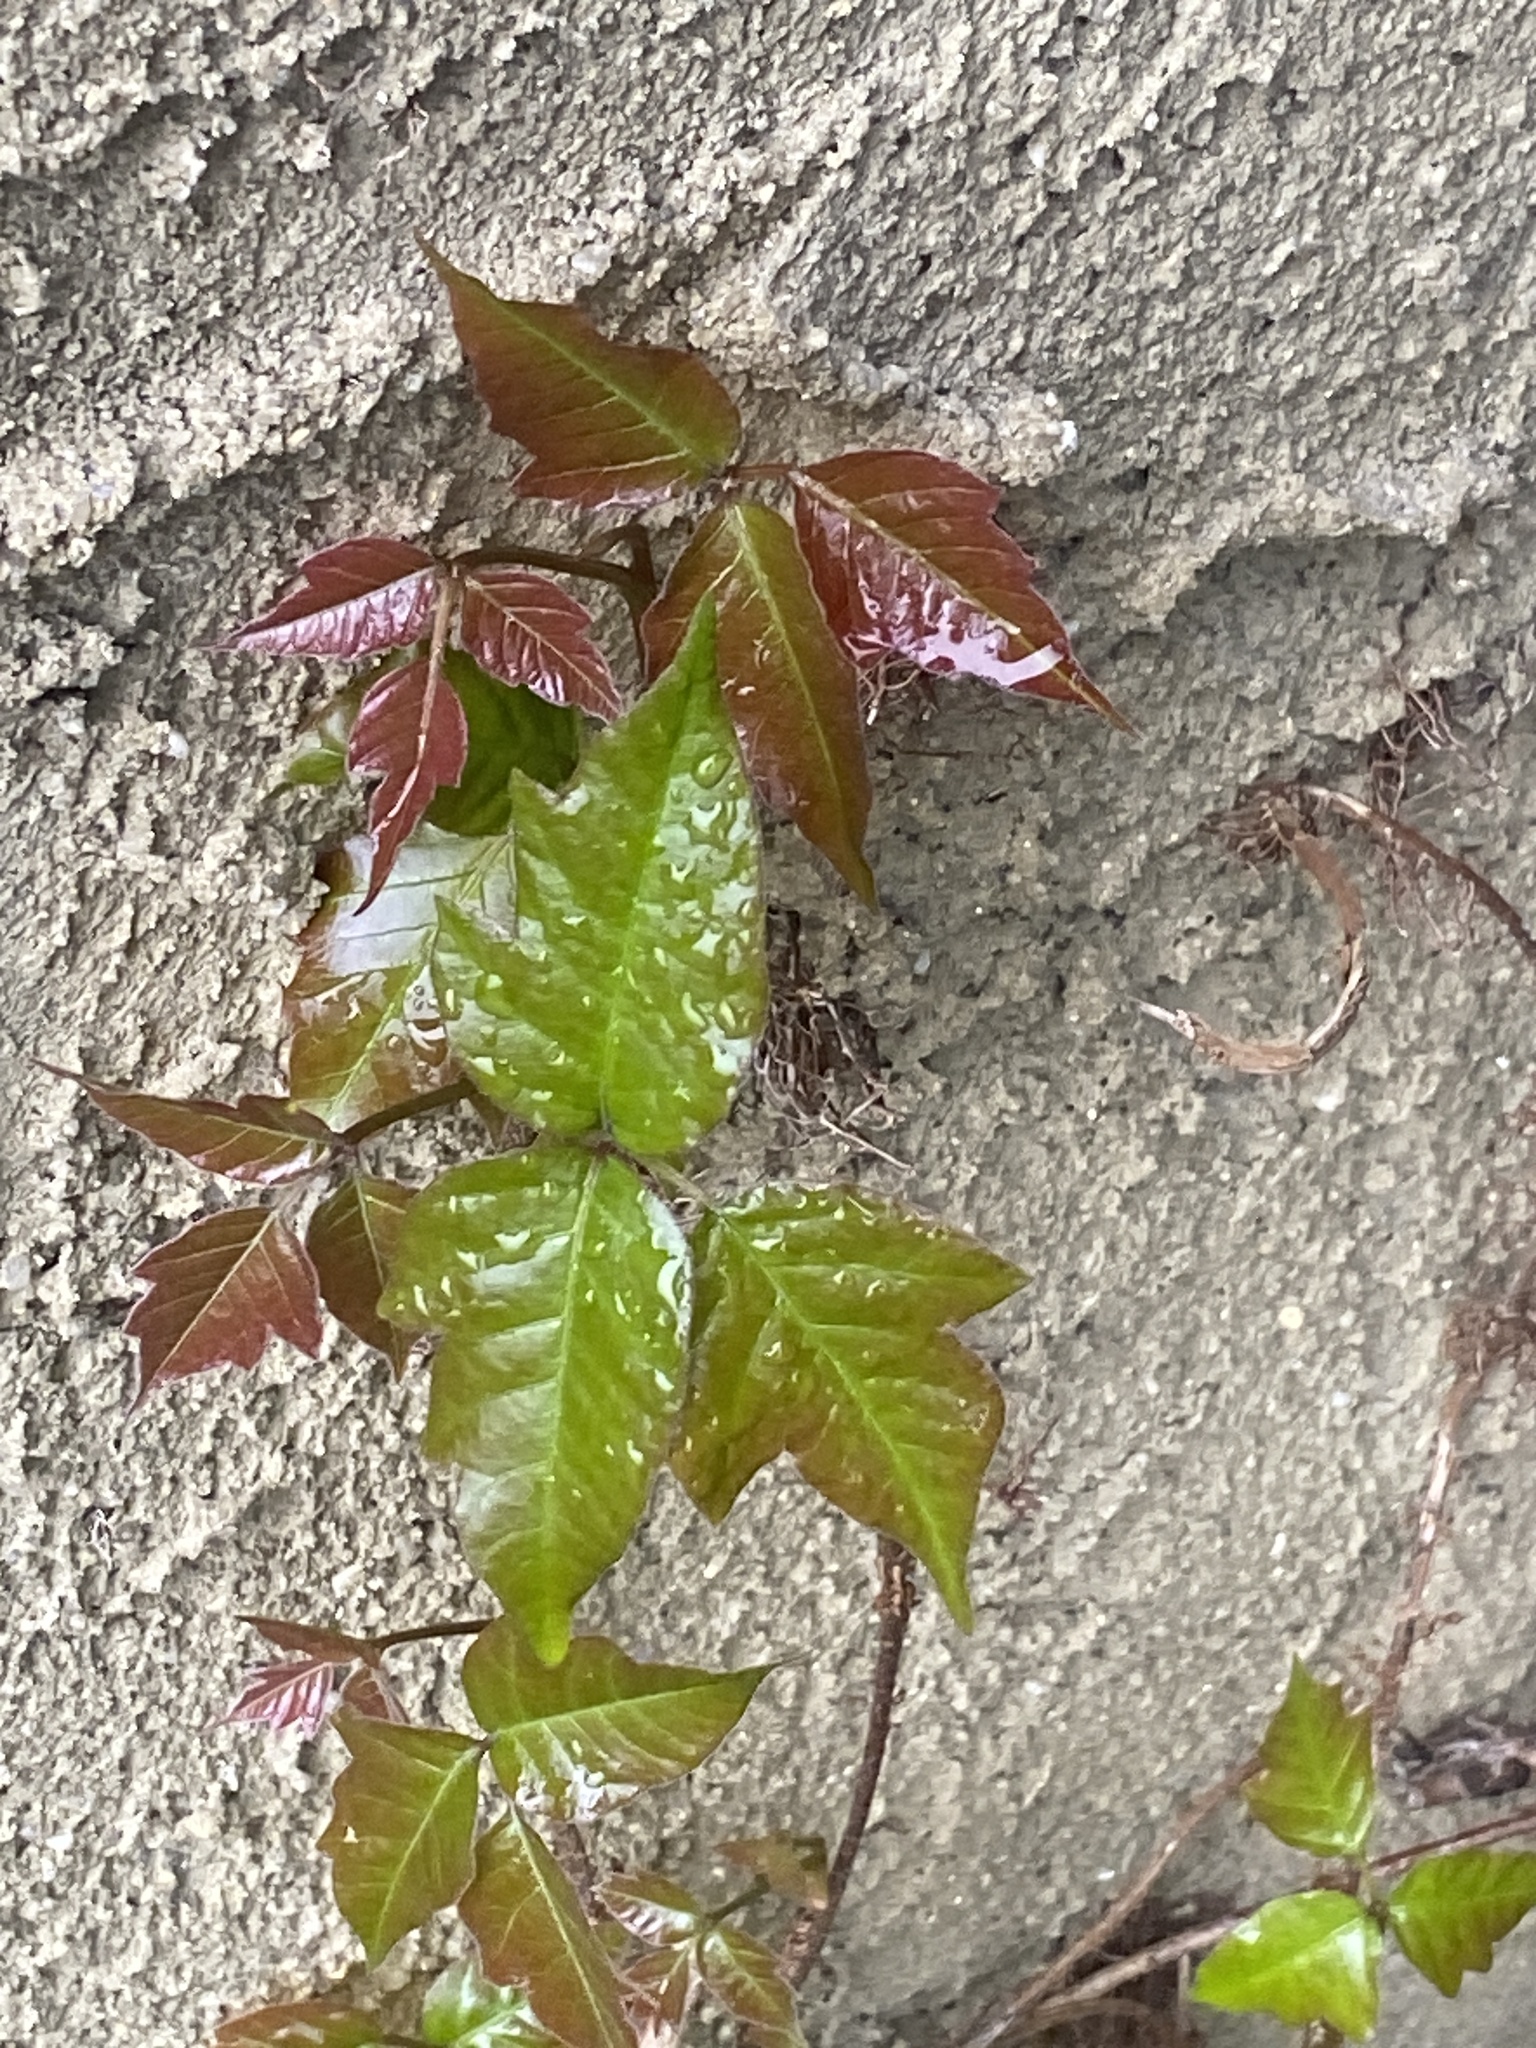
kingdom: Plantae
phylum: Tracheophyta
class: Magnoliopsida
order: Sapindales
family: Anacardiaceae
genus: Toxicodendron
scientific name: Toxicodendron radicans
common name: Poison ivy
